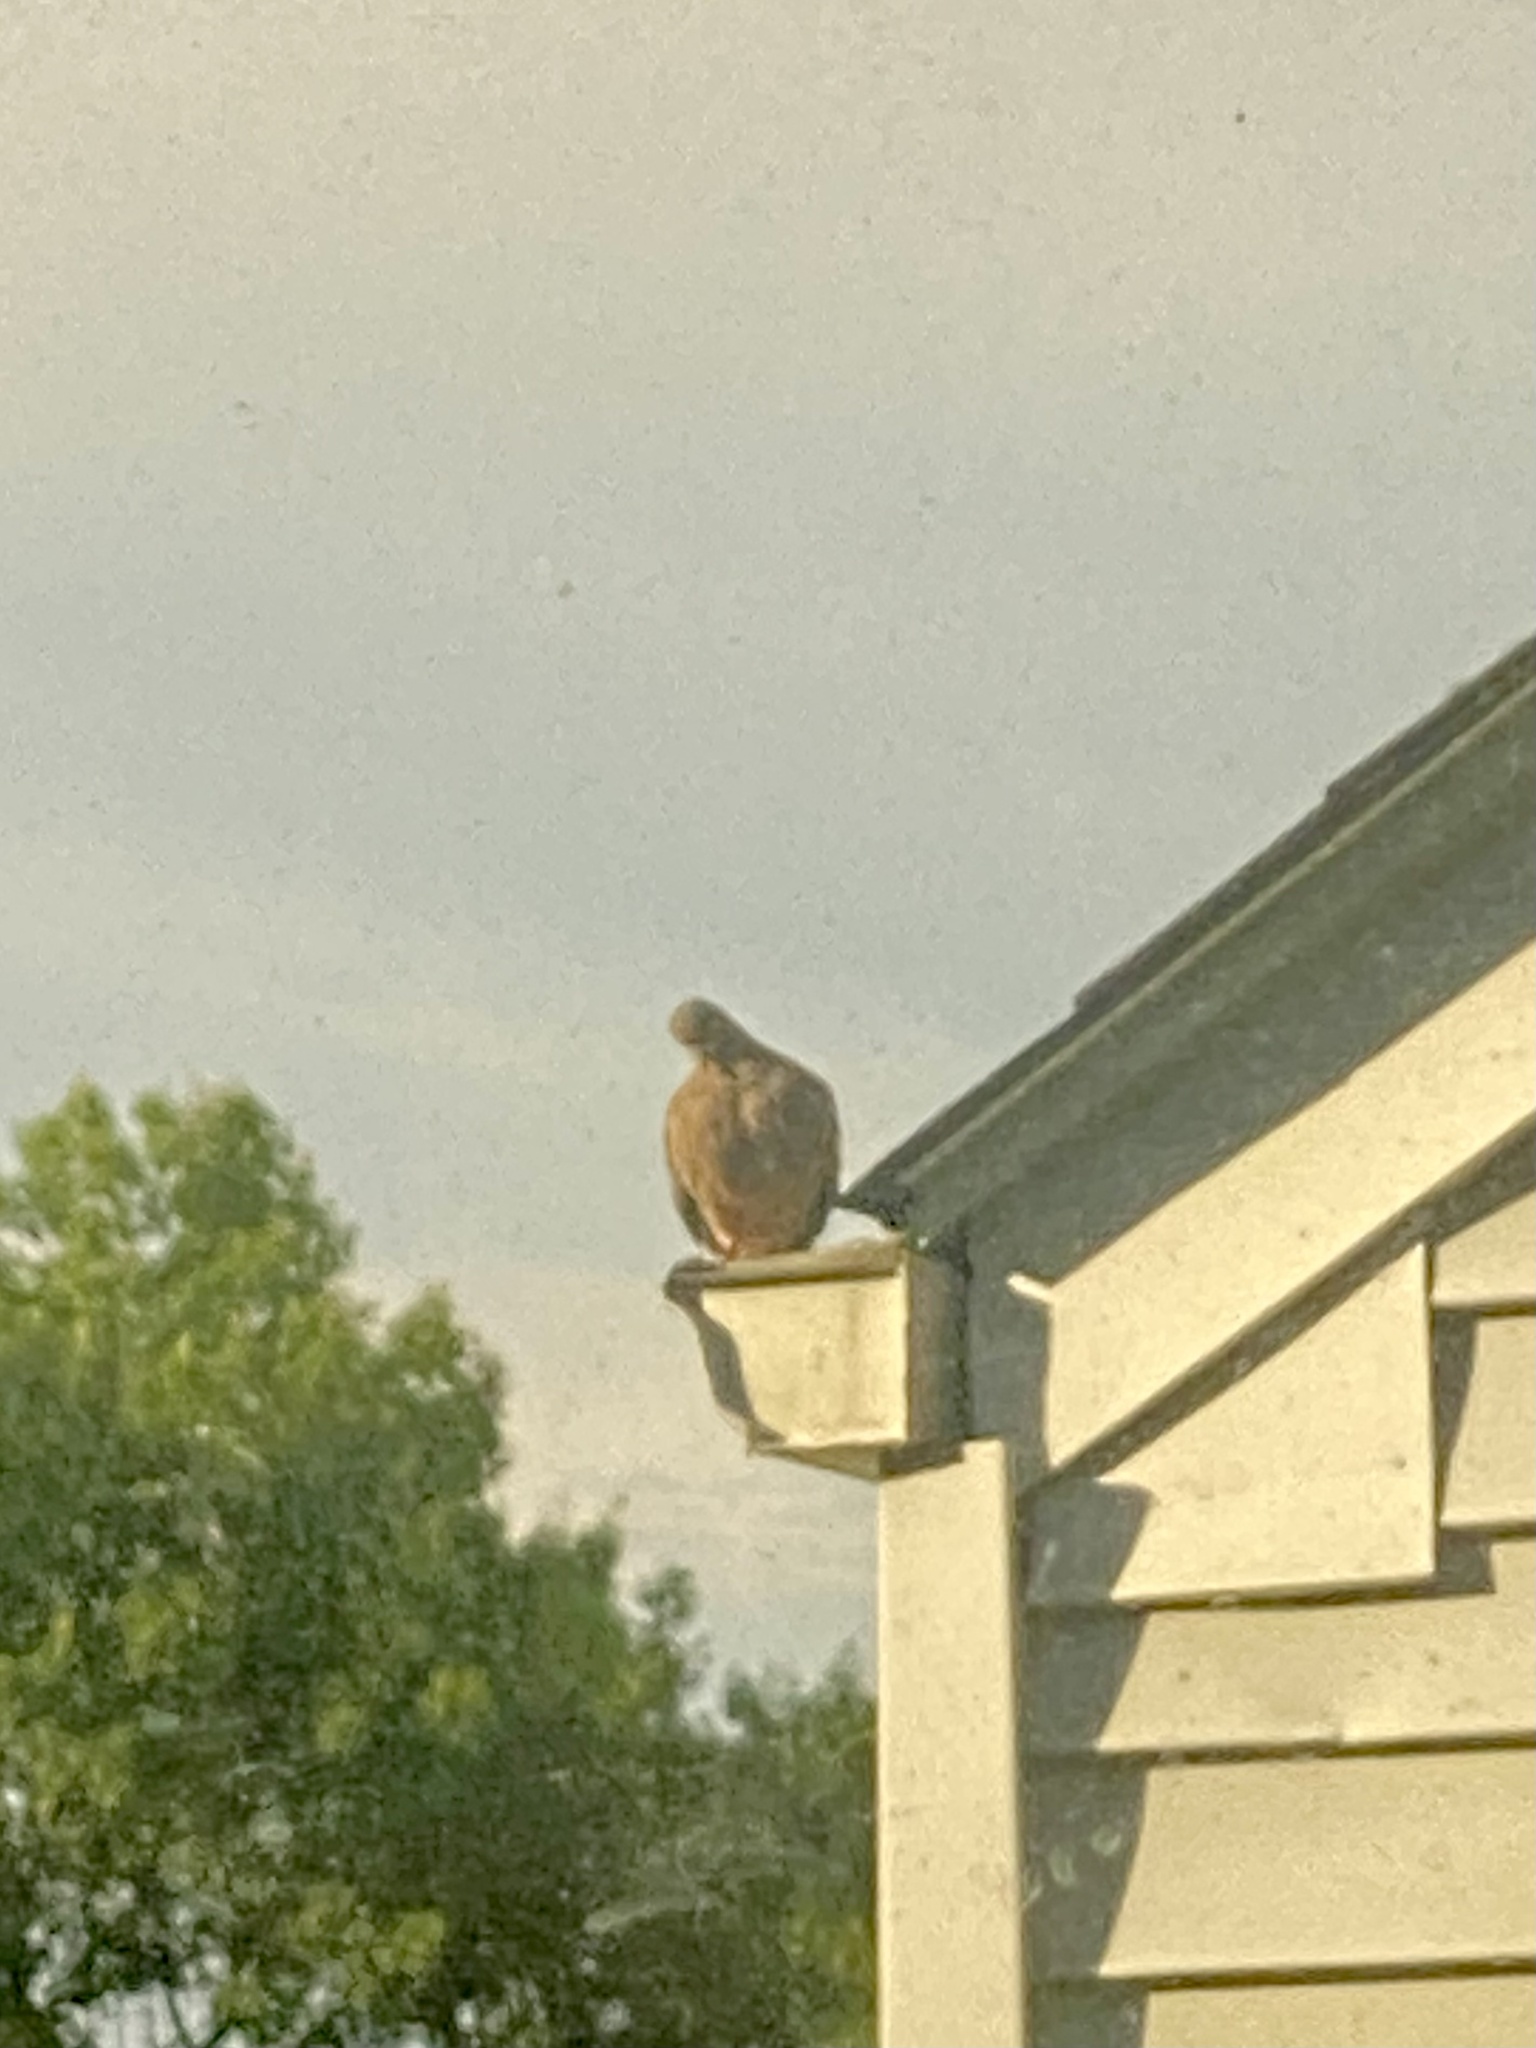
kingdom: Animalia
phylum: Chordata
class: Aves
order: Columbiformes
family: Columbidae
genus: Zenaida
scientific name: Zenaida macroura
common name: Mourning dove
